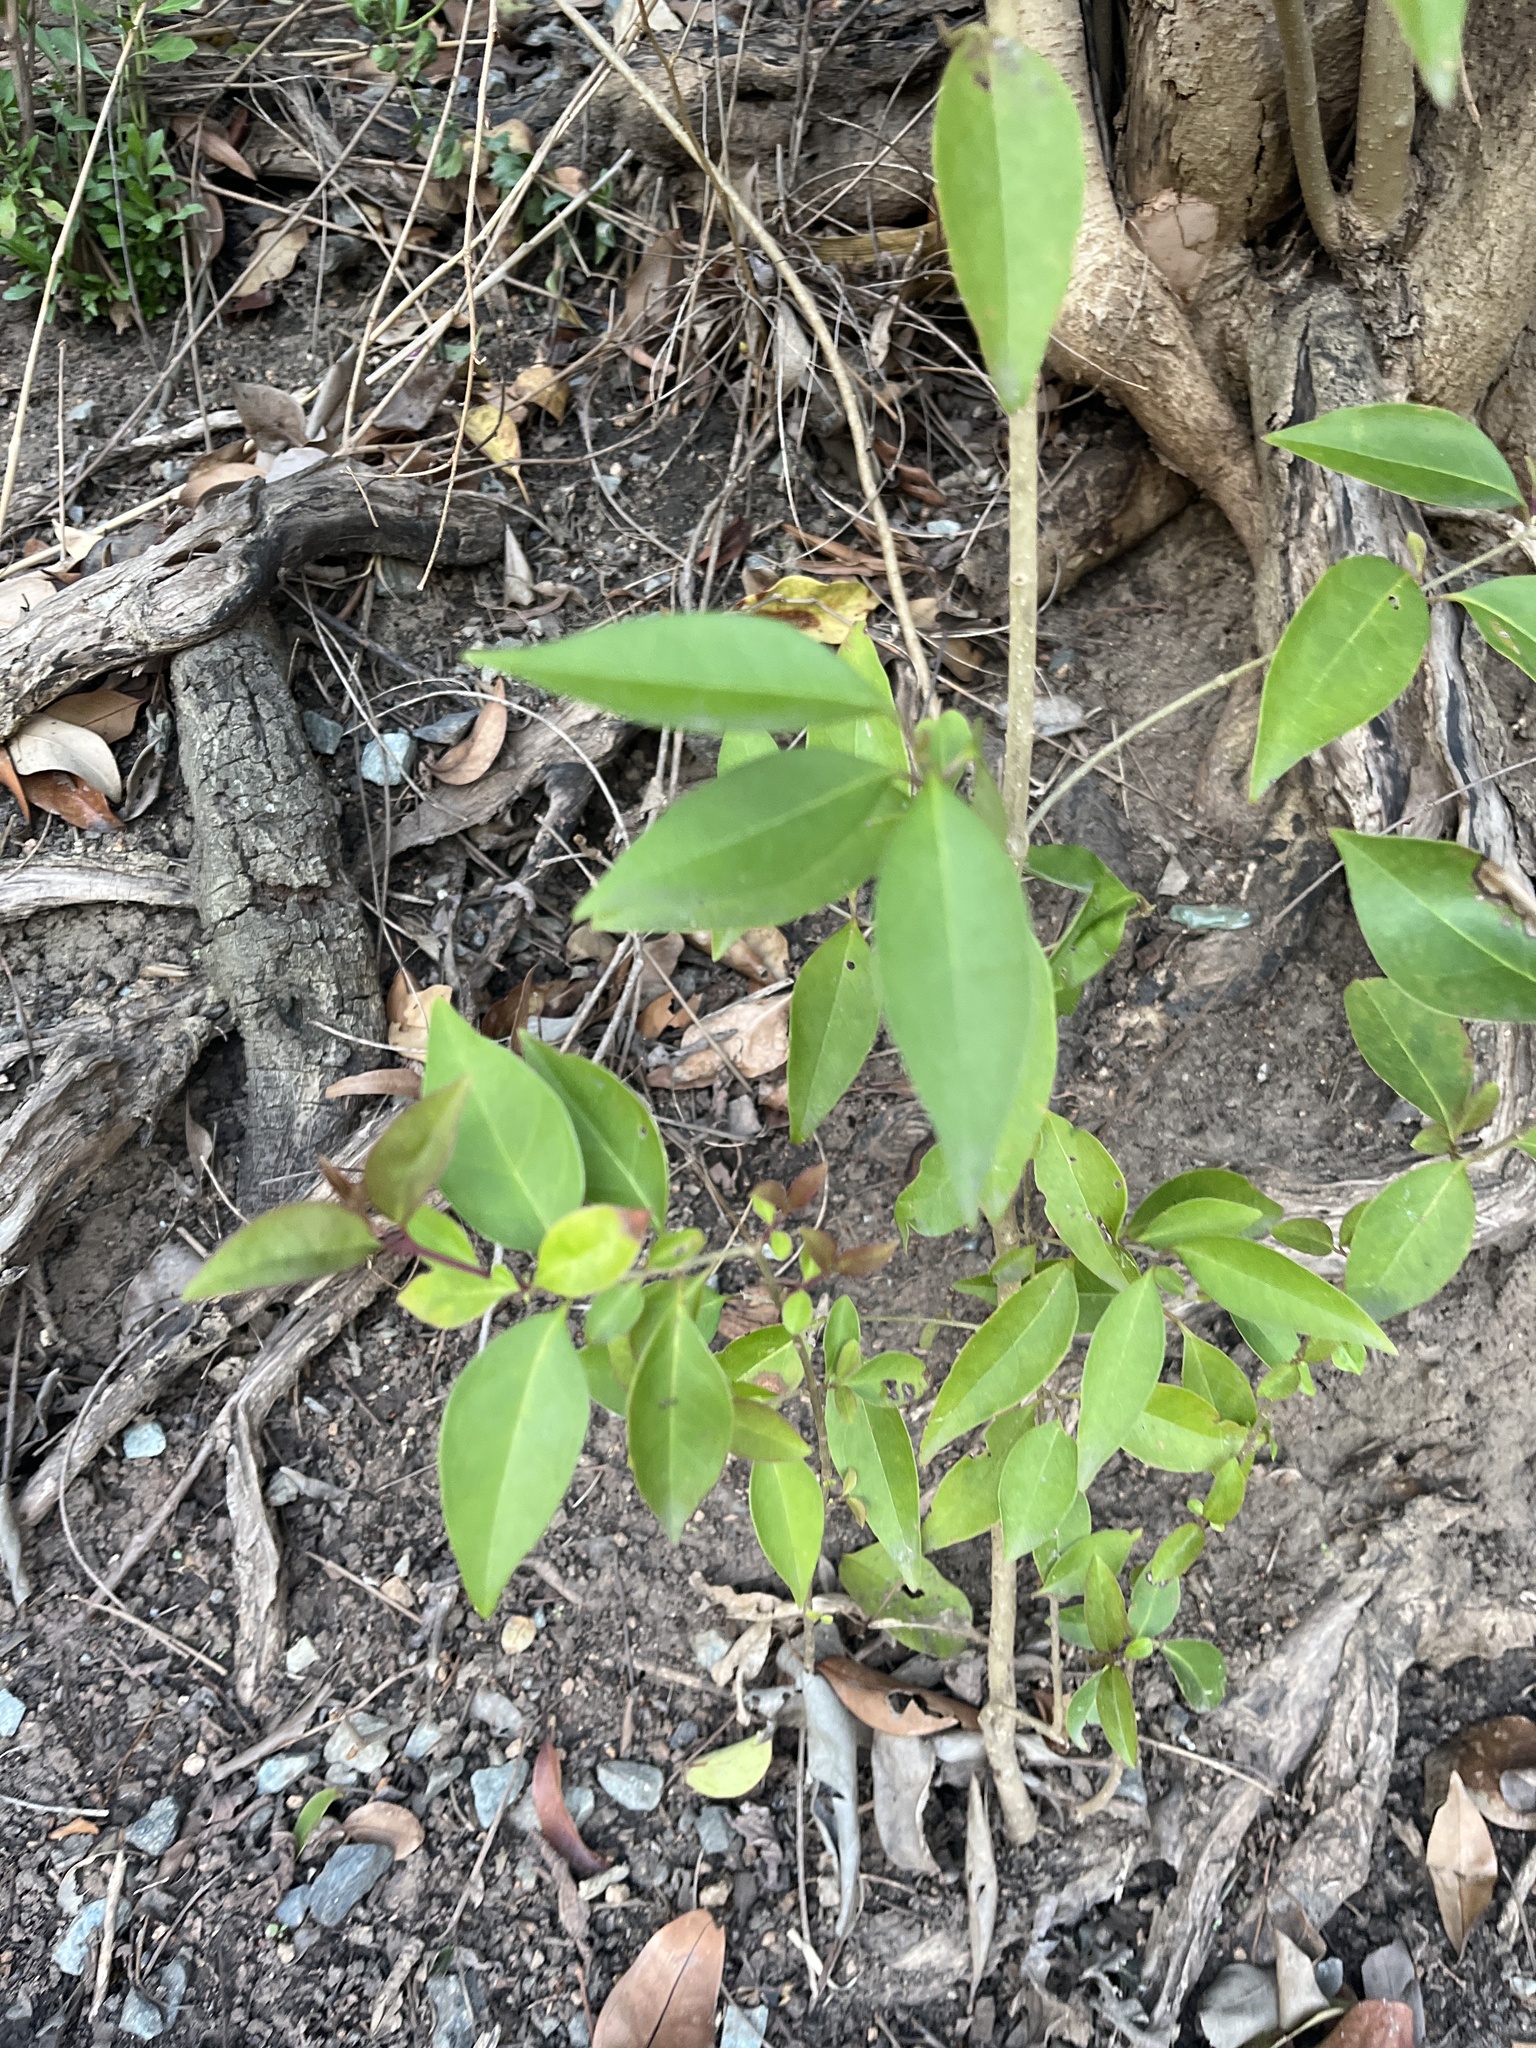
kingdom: Plantae
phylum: Tracheophyta
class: Magnoliopsida
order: Lamiales
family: Oleaceae
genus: Ligustrum
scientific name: Ligustrum lucidum
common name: Glossy privet
